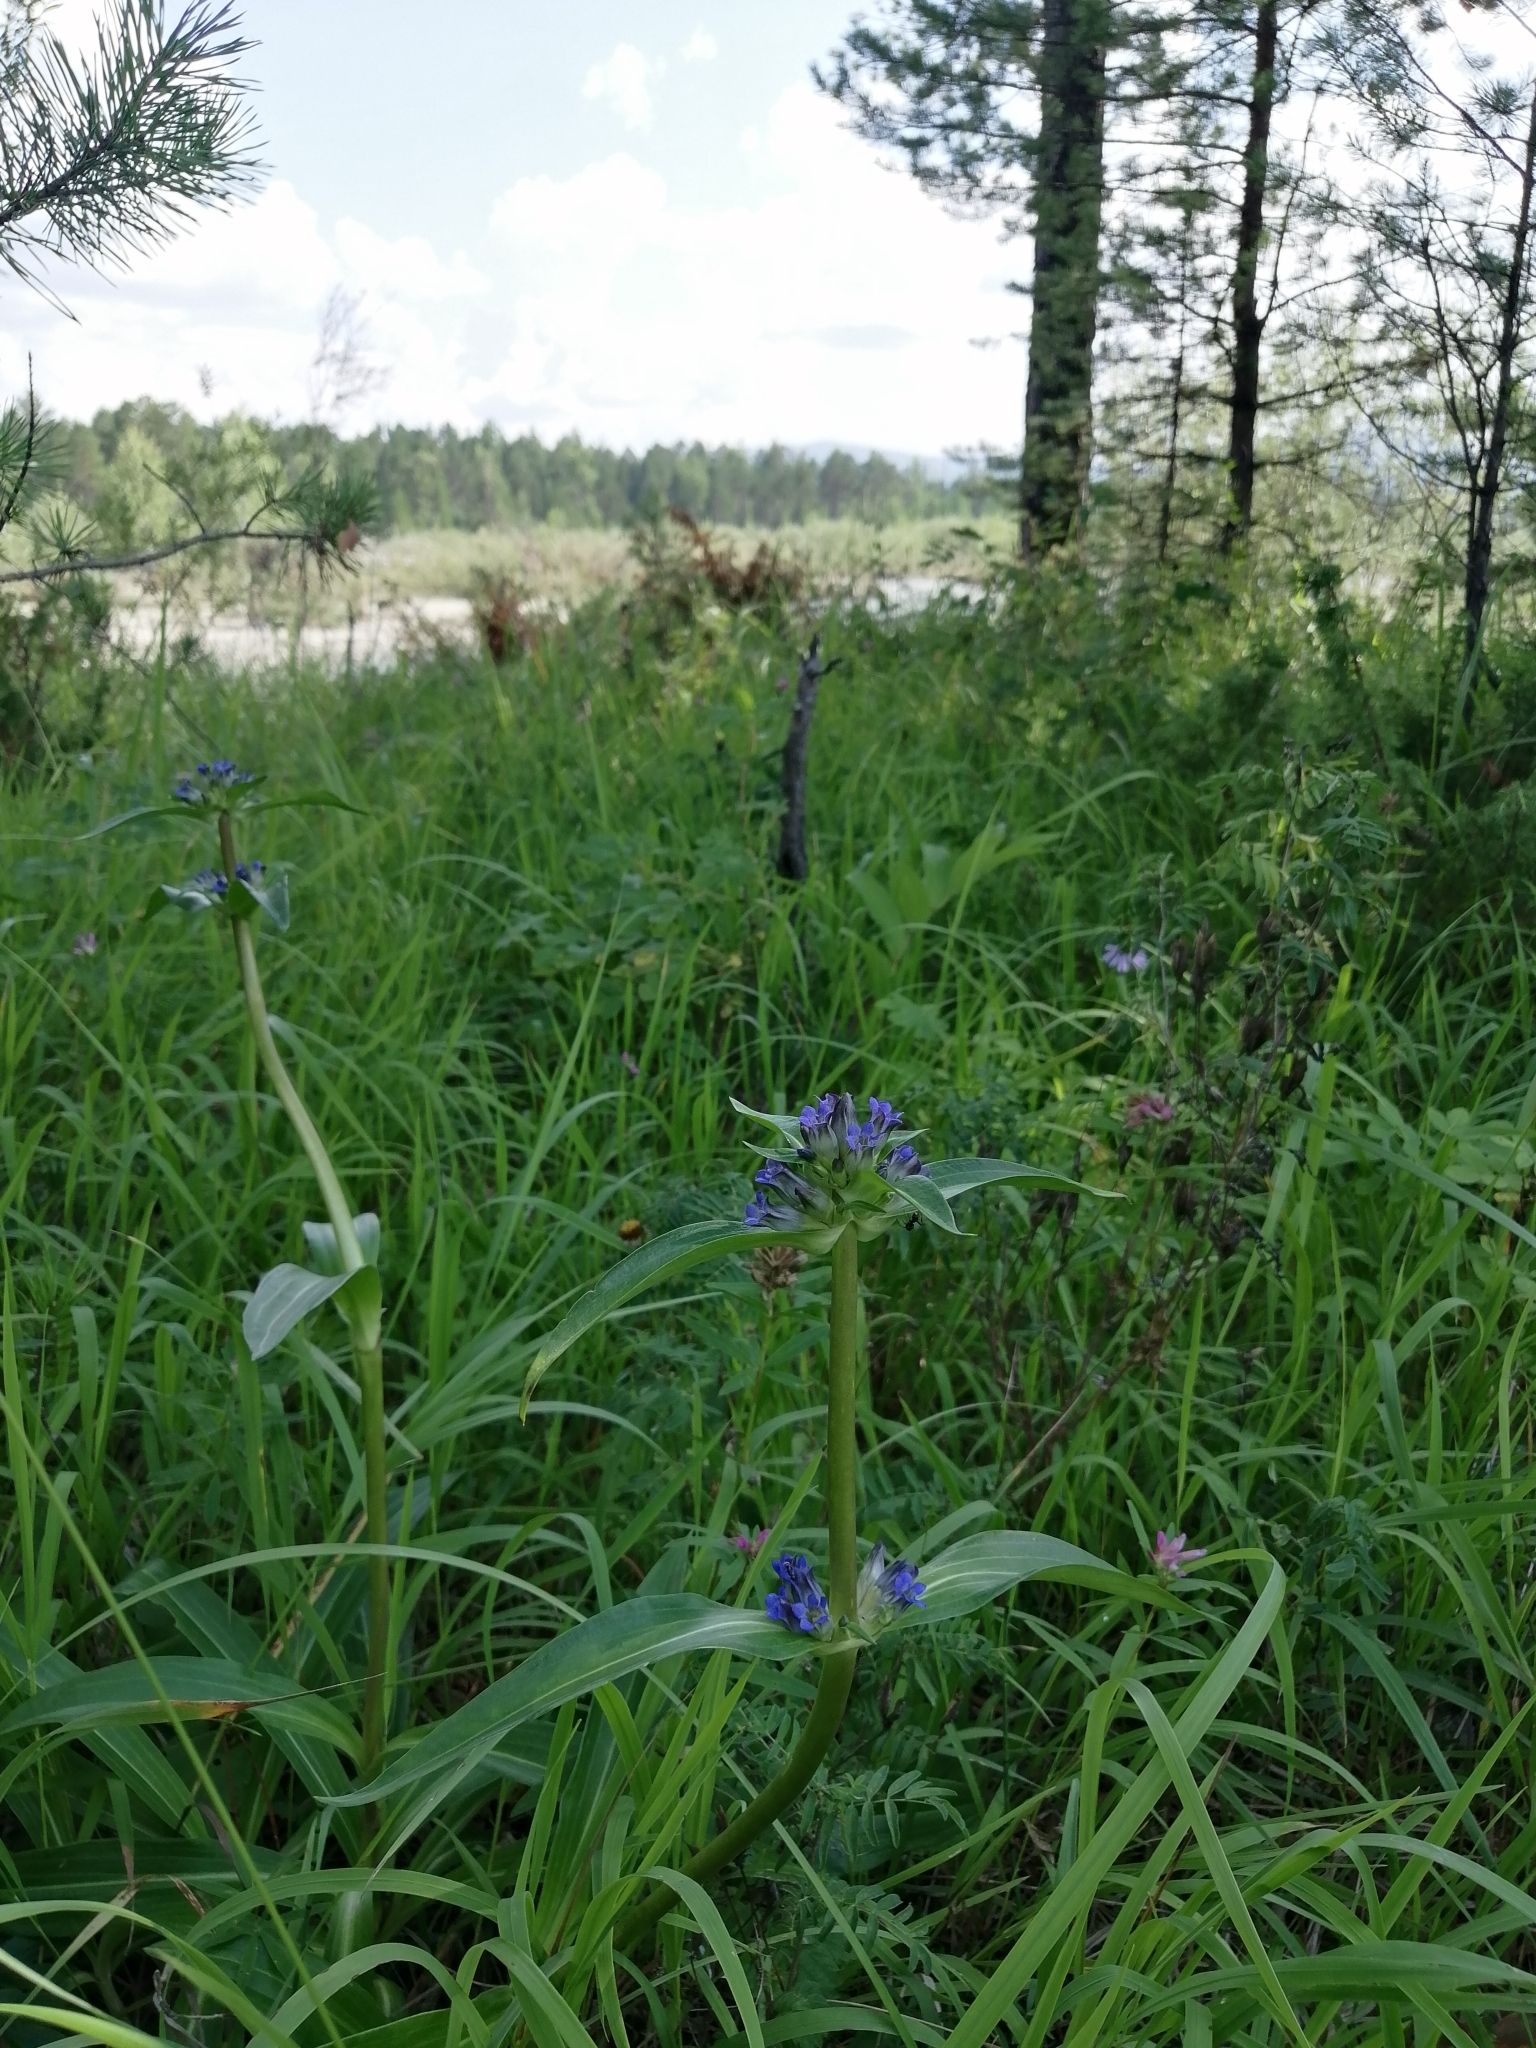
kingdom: Plantae
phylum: Tracheophyta
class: Magnoliopsida
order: Gentianales
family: Gentianaceae
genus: Gentiana
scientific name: Gentiana macrophylla
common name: Large-leaf gentian
